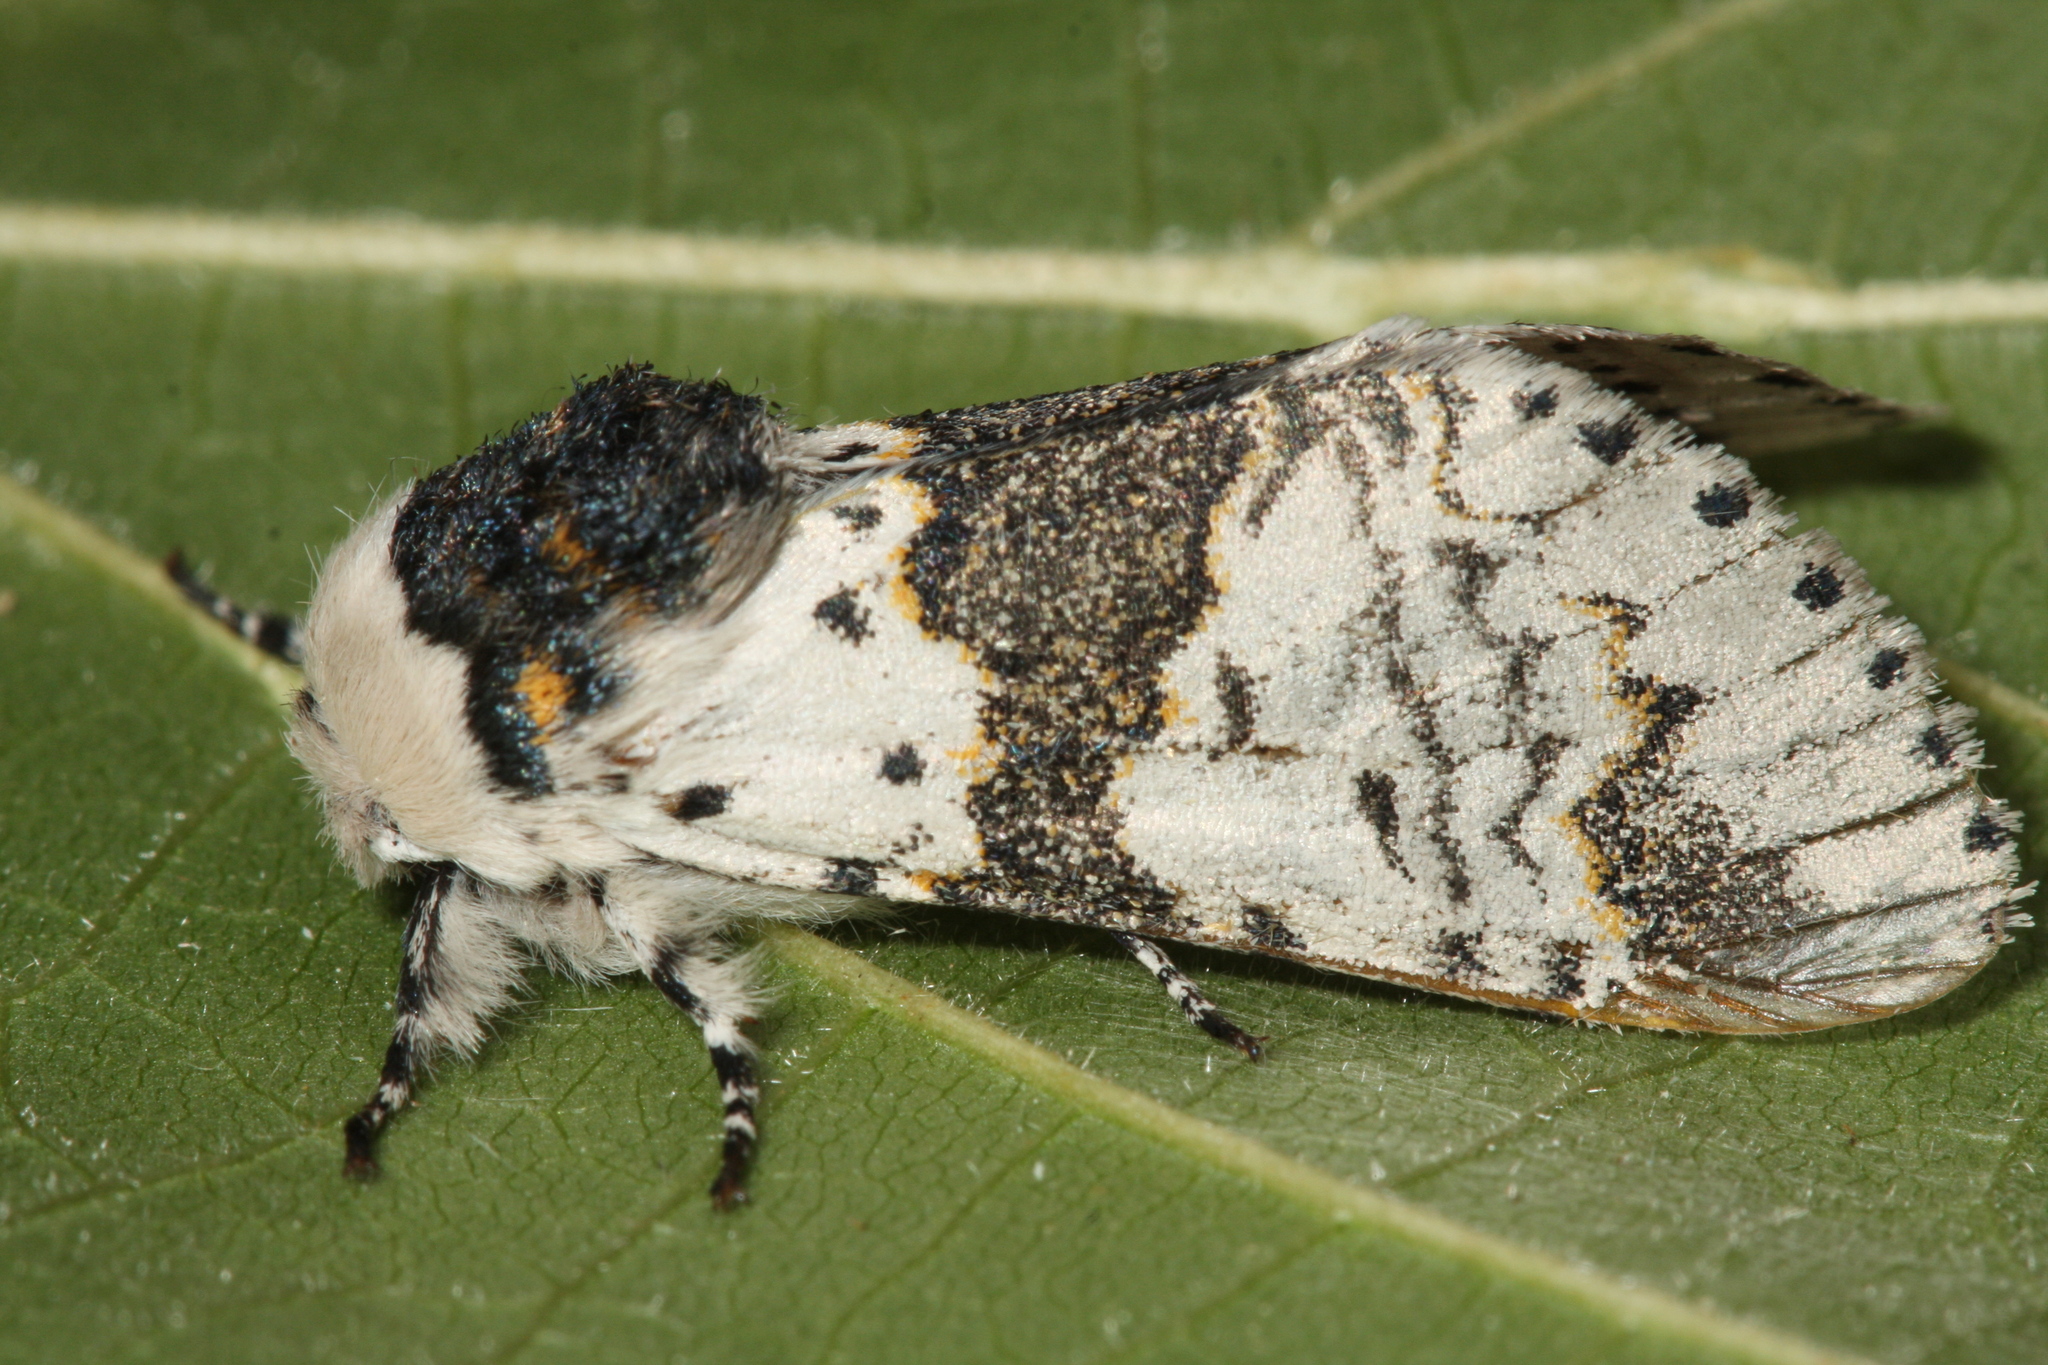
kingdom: Animalia
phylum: Arthropoda
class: Insecta
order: Lepidoptera
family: Notodontidae
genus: Furcula
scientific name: Furcula bicuspis
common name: Alder kitten
